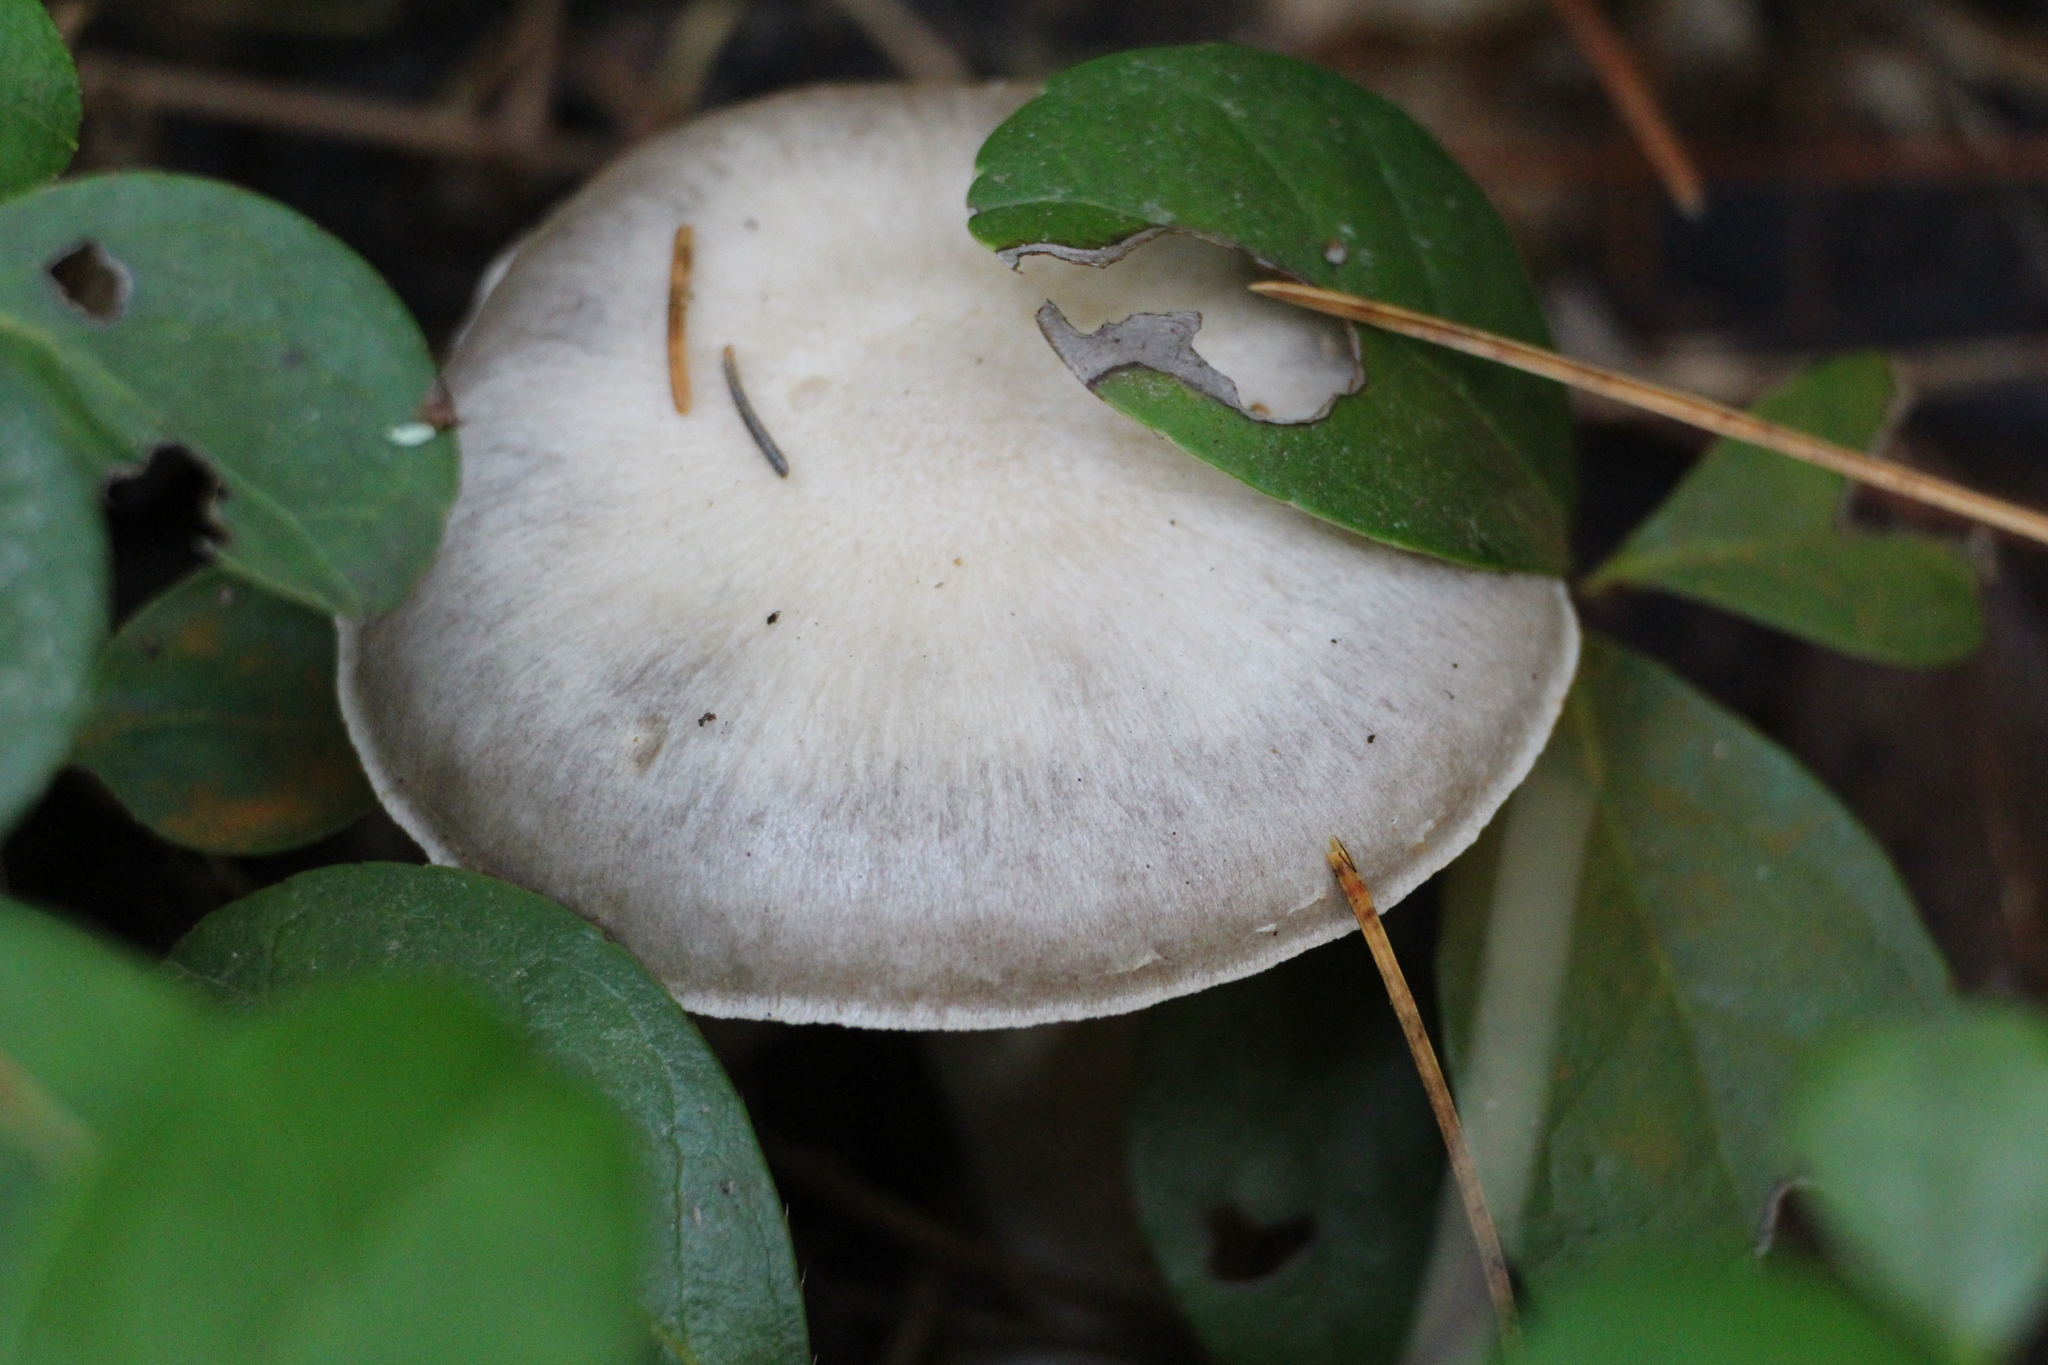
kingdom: Fungi
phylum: Basidiomycota
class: Agaricomycetes
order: Agaricales
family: Cortinariaceae
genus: Cortinarius
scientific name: Cortinarius alboviolaceus
